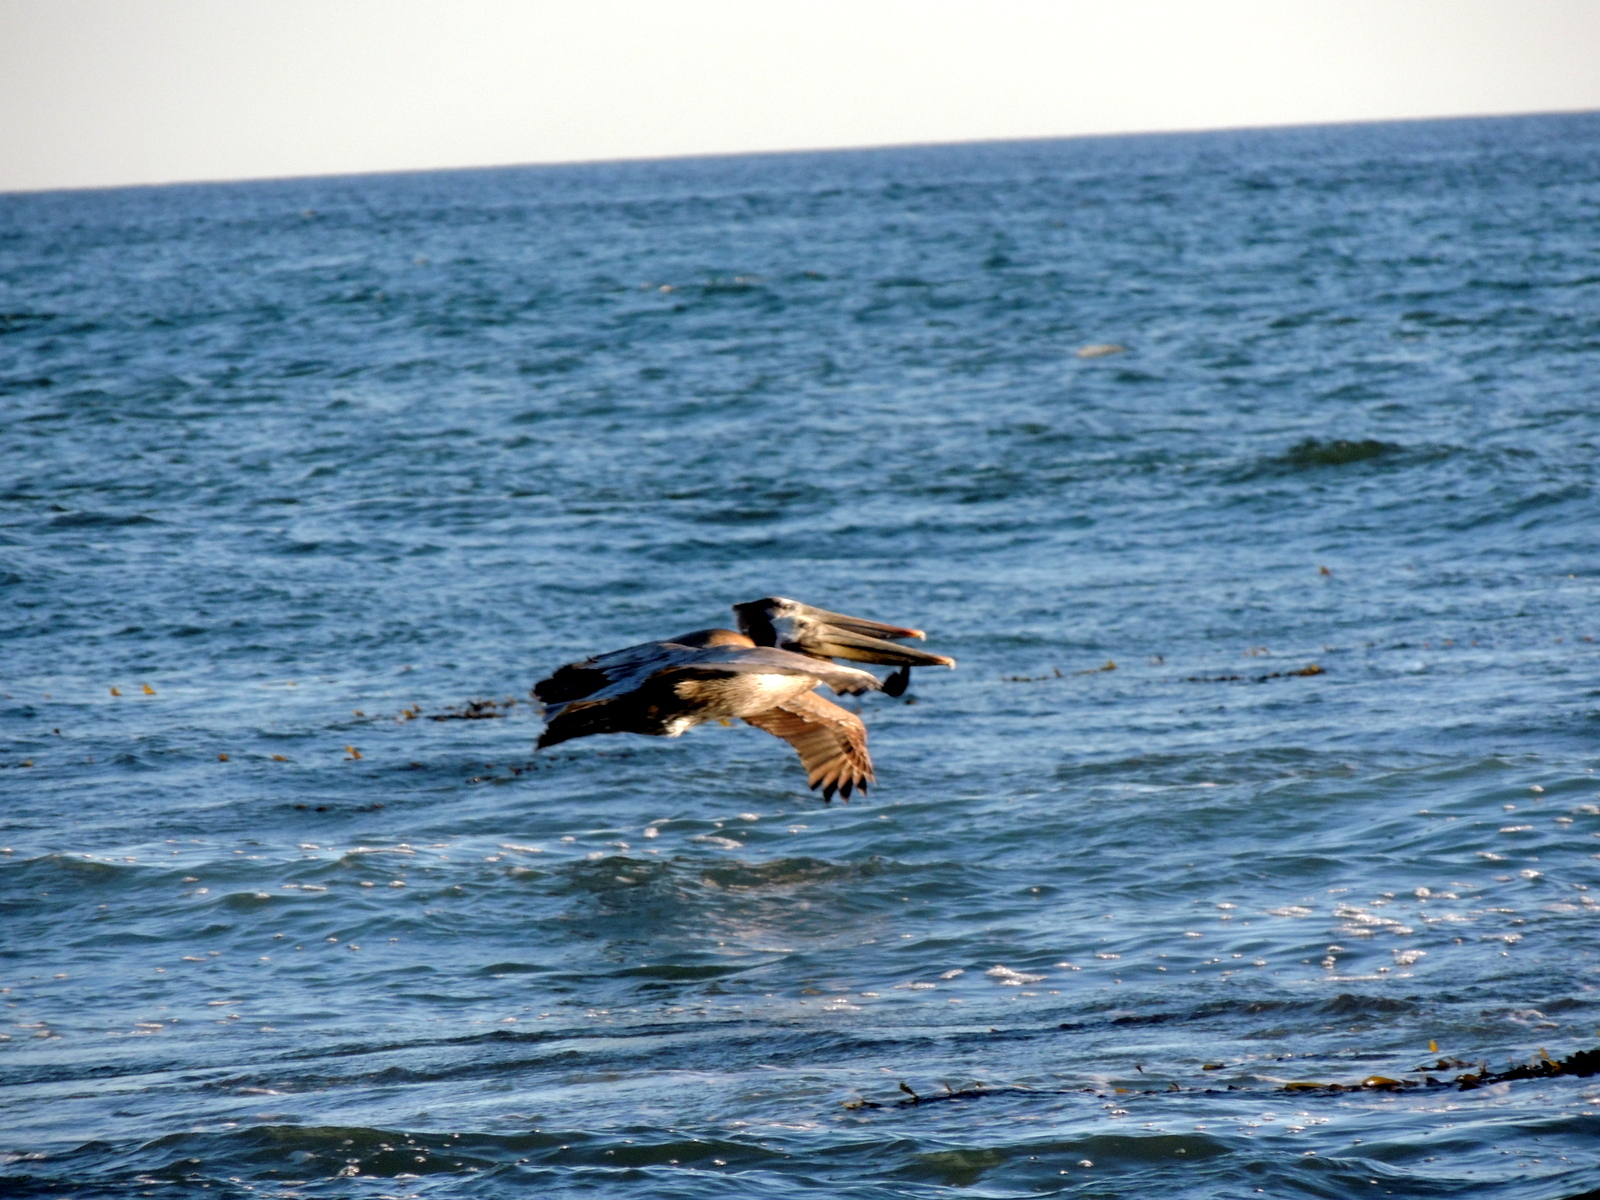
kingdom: Animalia
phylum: Chordata
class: Aves
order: Pelecaniformes
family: Pelecanidae
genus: Pelecanus
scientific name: Pelecanus occidentalis
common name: Brown pelican
